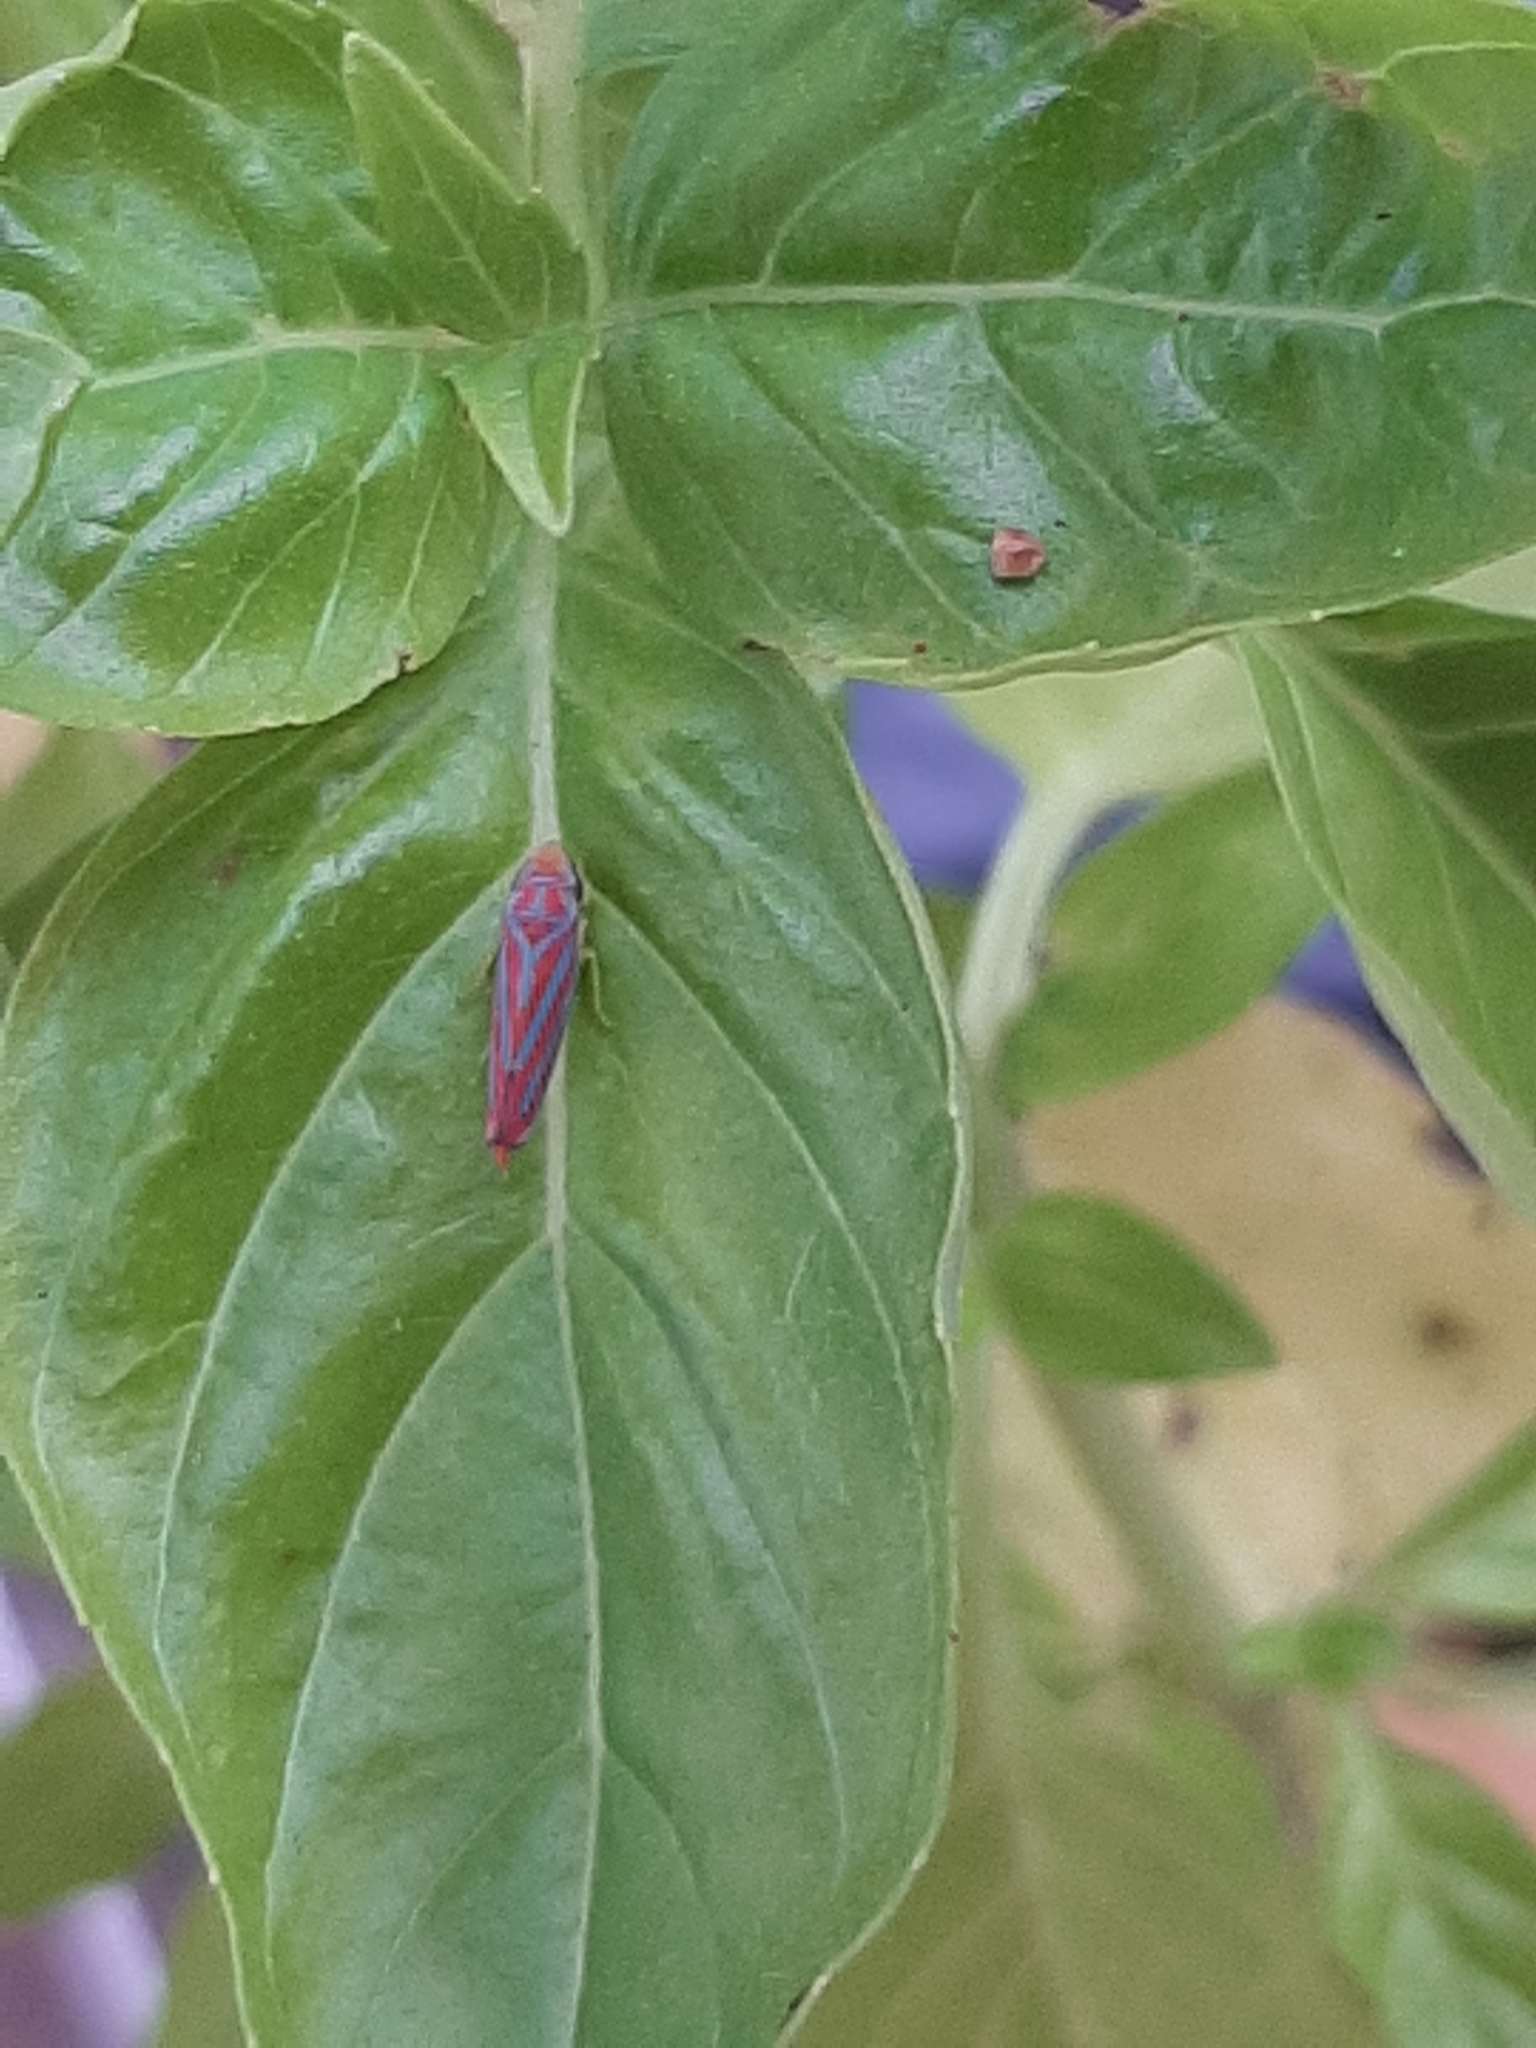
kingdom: Animalia
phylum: Arthropoda
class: Insecta
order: Hemiptera
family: Cicadellidae
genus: Graphocephala
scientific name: Graphocephala coccinea
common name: Candy-striped leafhopper
